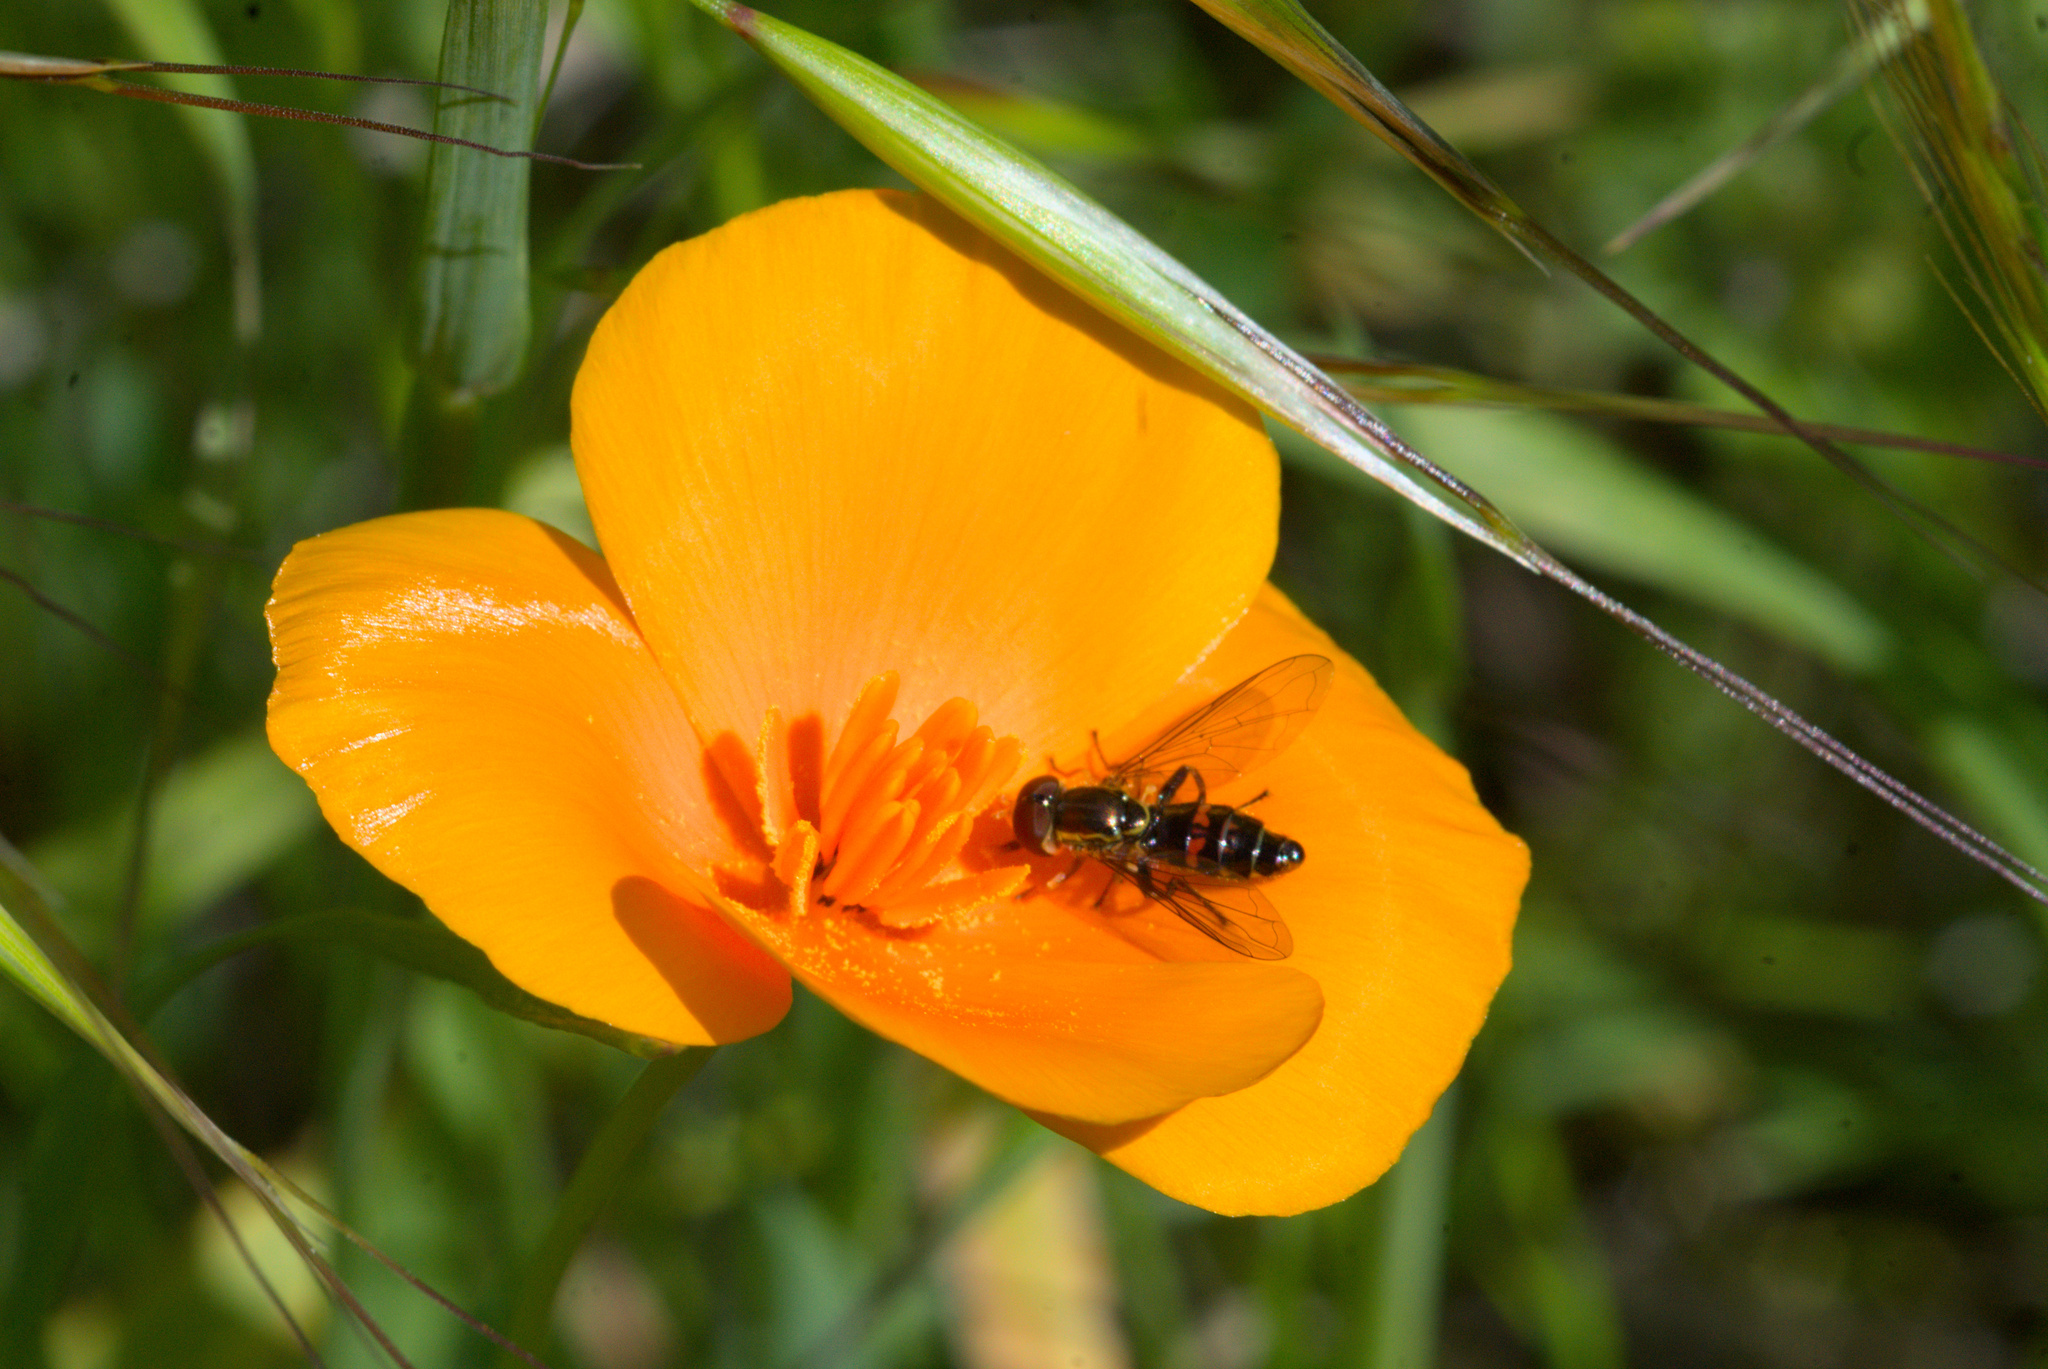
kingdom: Animalia
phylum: Arthropoda
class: Insecta
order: Diptera
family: Syrphidae
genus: Toxomerus
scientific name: Toxomerus occidentalis
